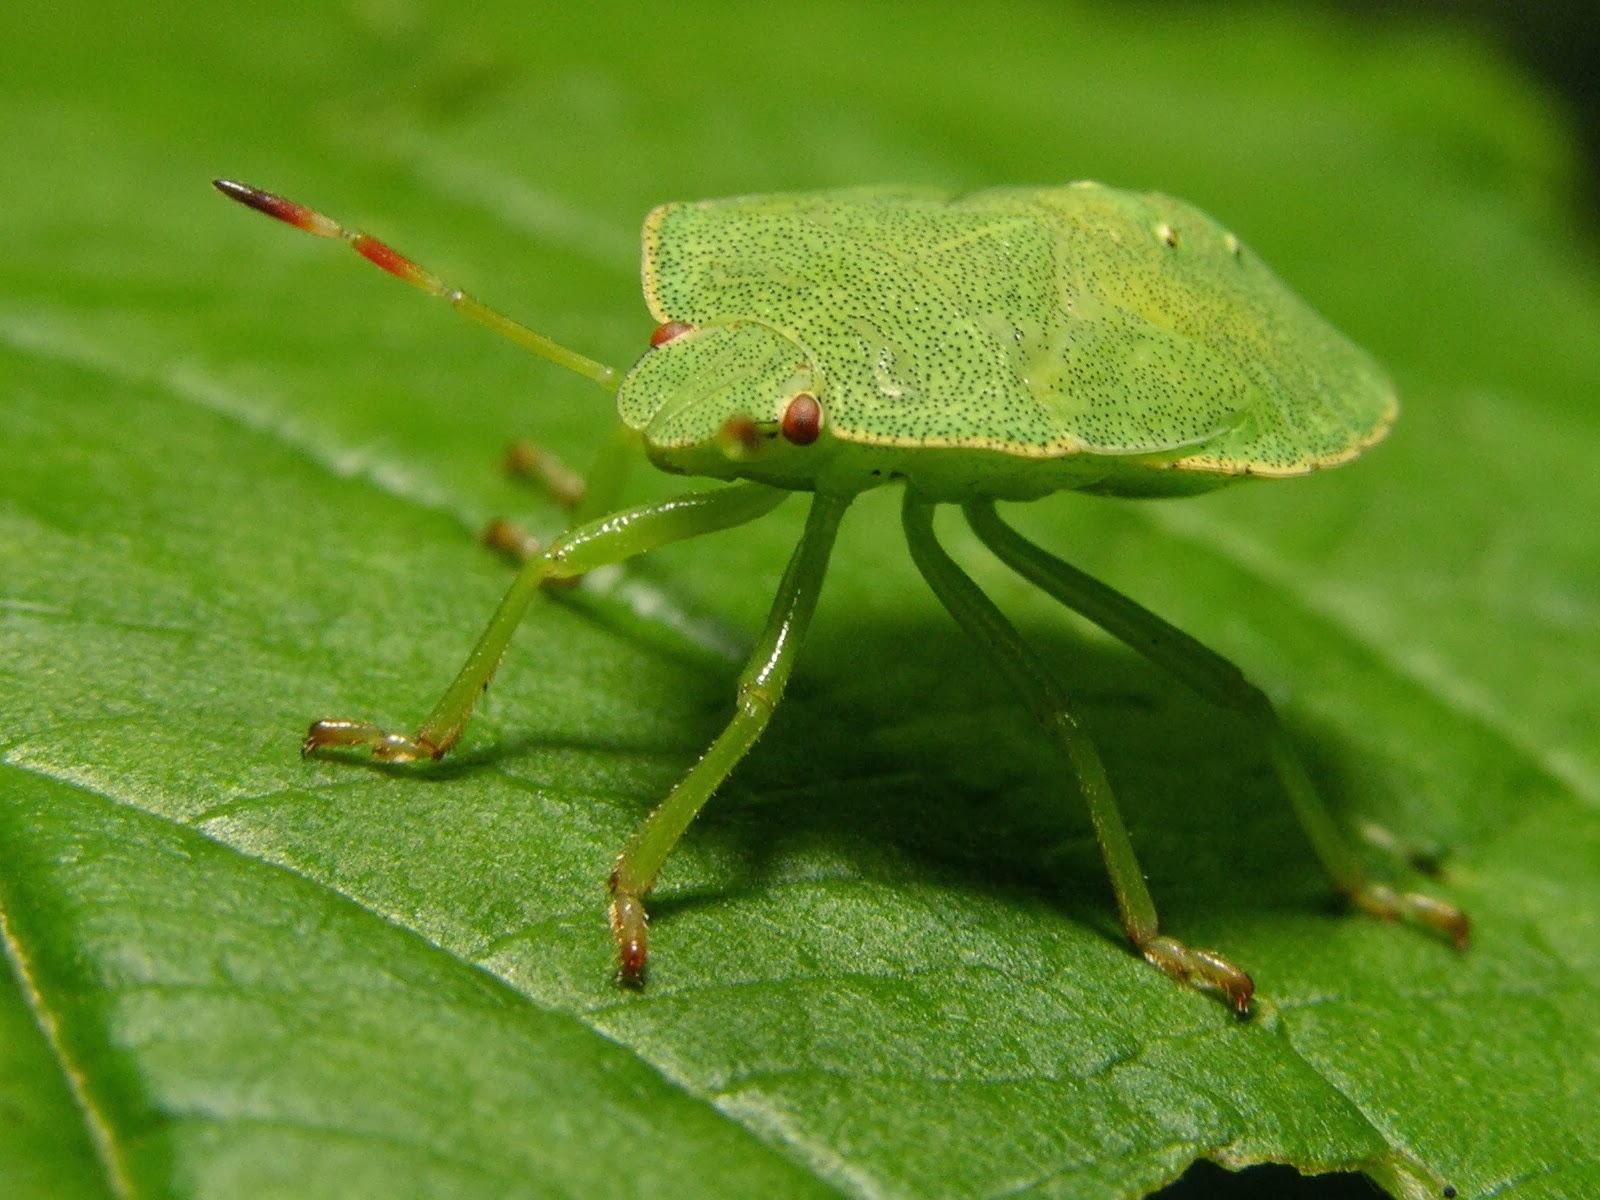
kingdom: Animalia
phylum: Arthropoda
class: Insecta
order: Hemiptera
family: Pentatomidae
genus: Palomena
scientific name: Palomena prasina
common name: Green shieldbug
